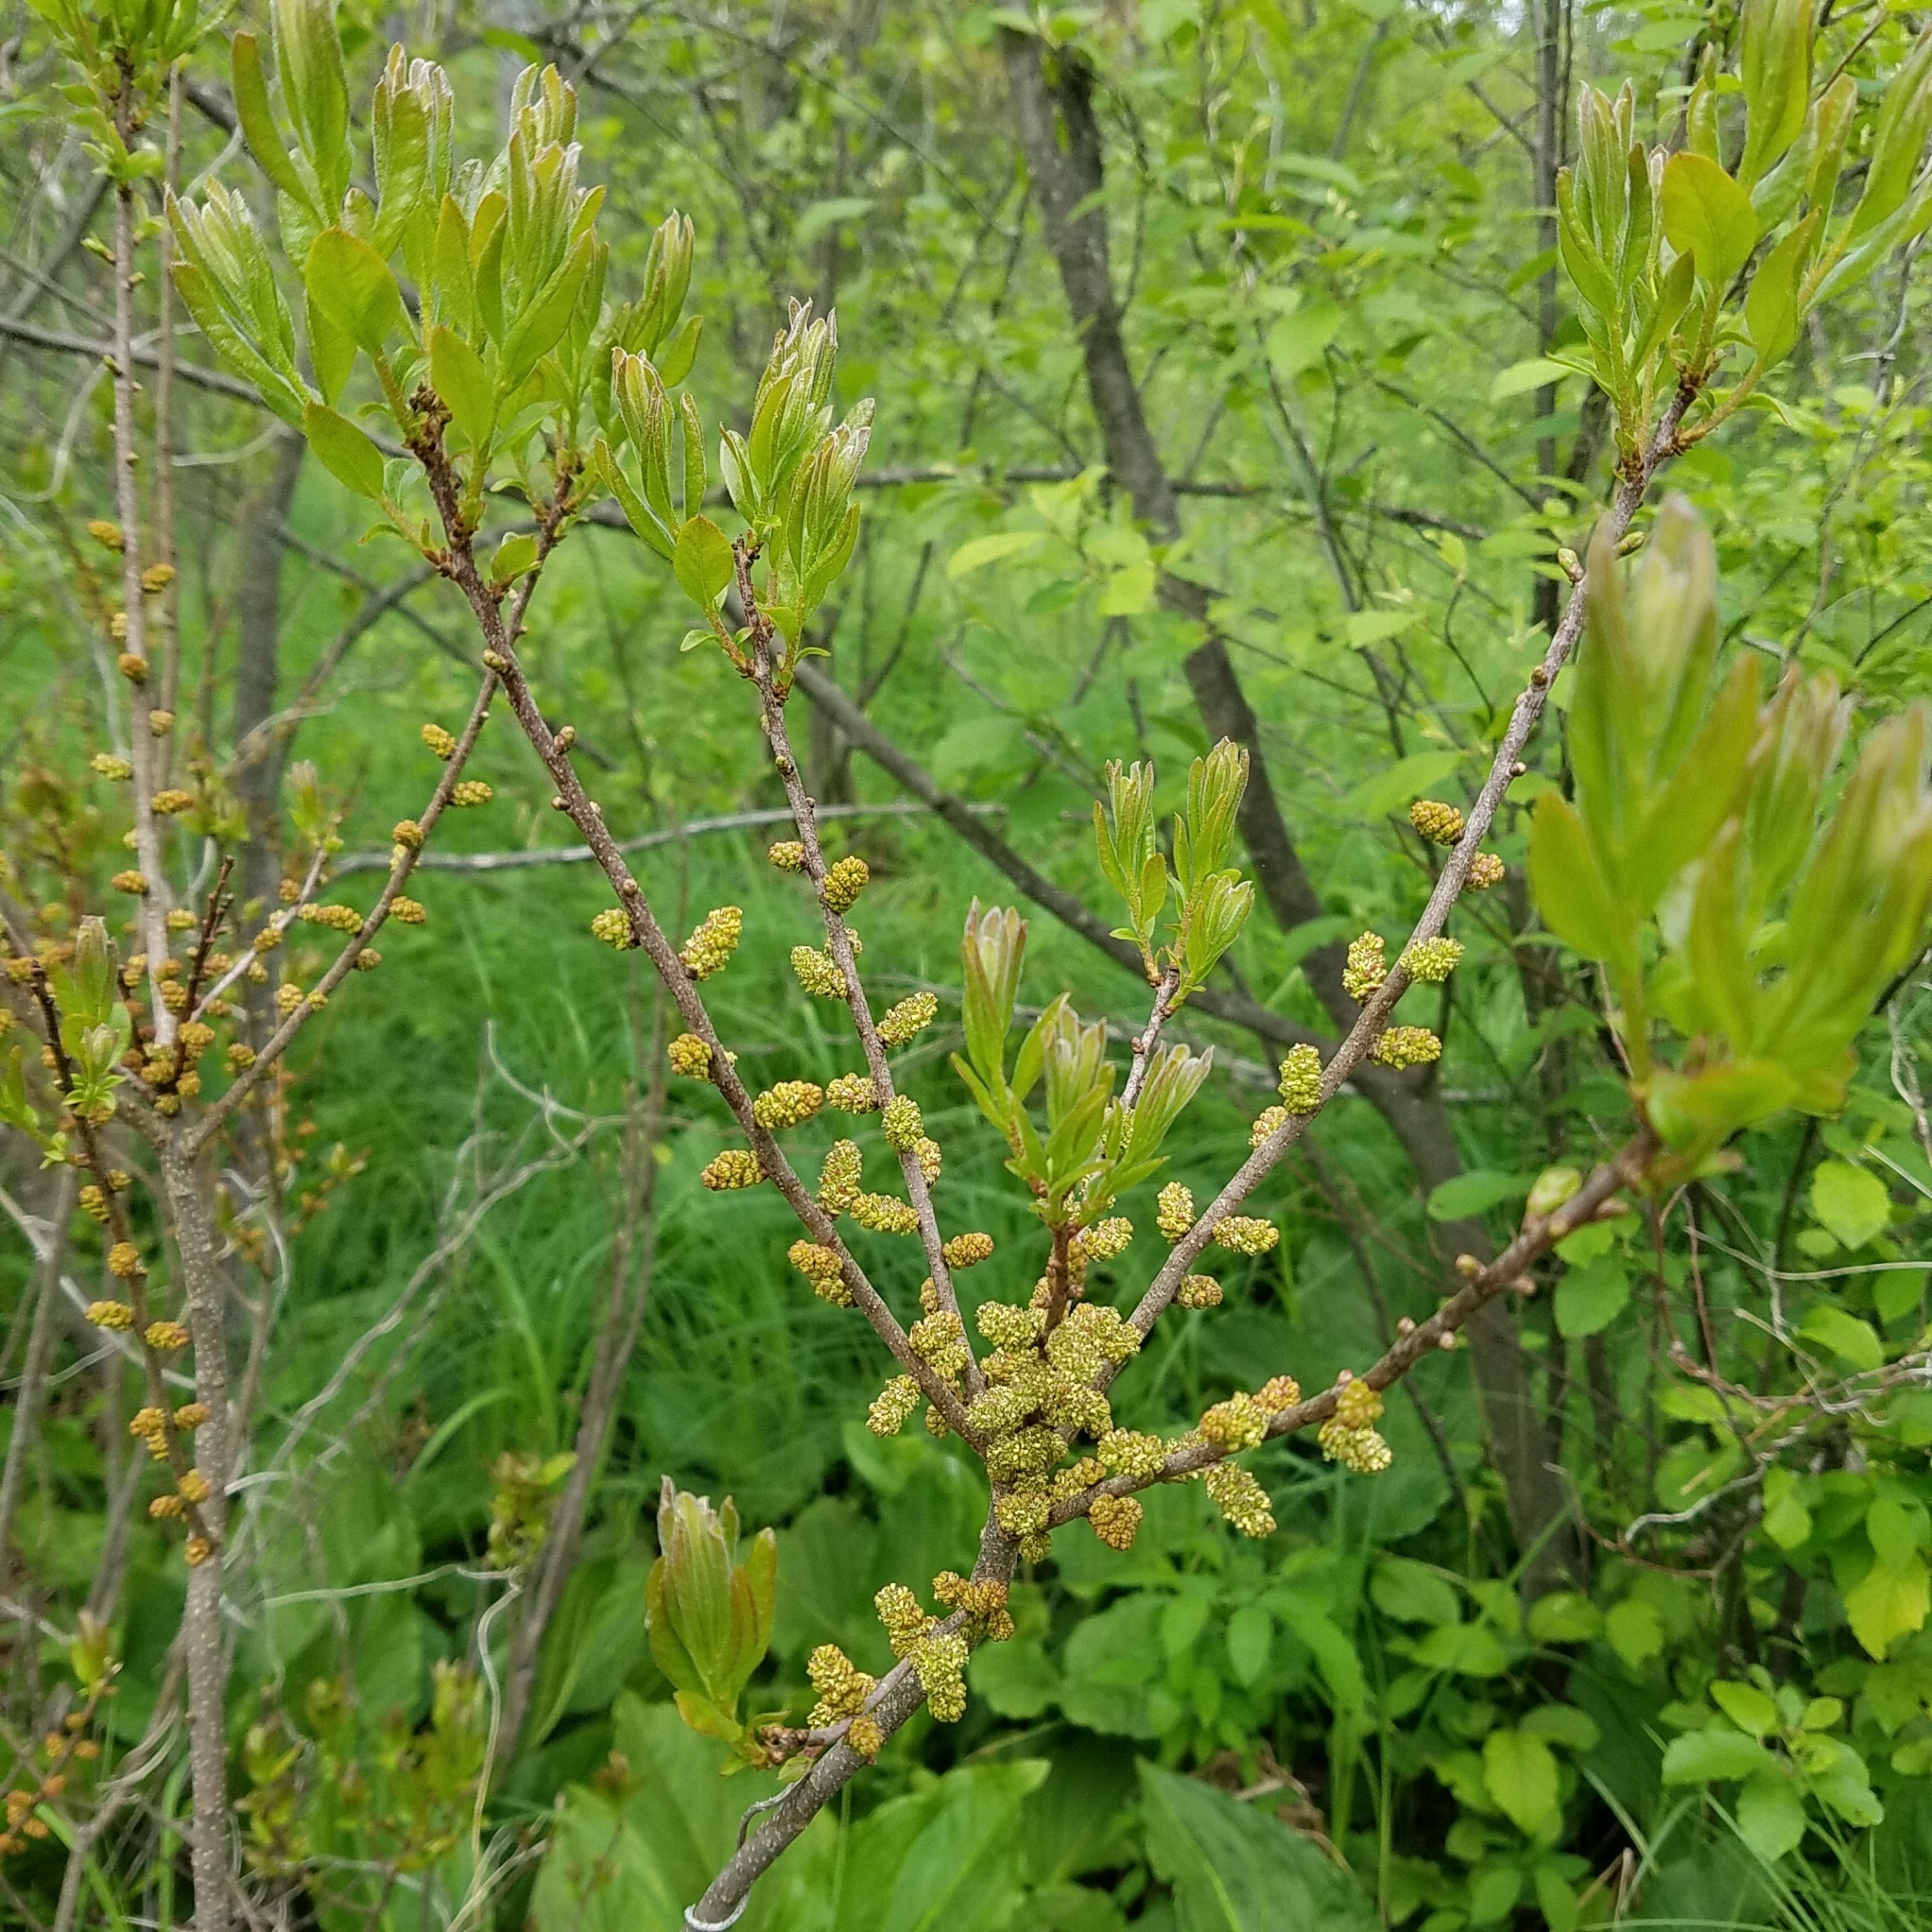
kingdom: Plantae
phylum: Tracheophyta
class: Magnoliopsida
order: Fagales
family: Myricaceae
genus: Morella
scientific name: Morella pensylvanica
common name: Northern bayberry
